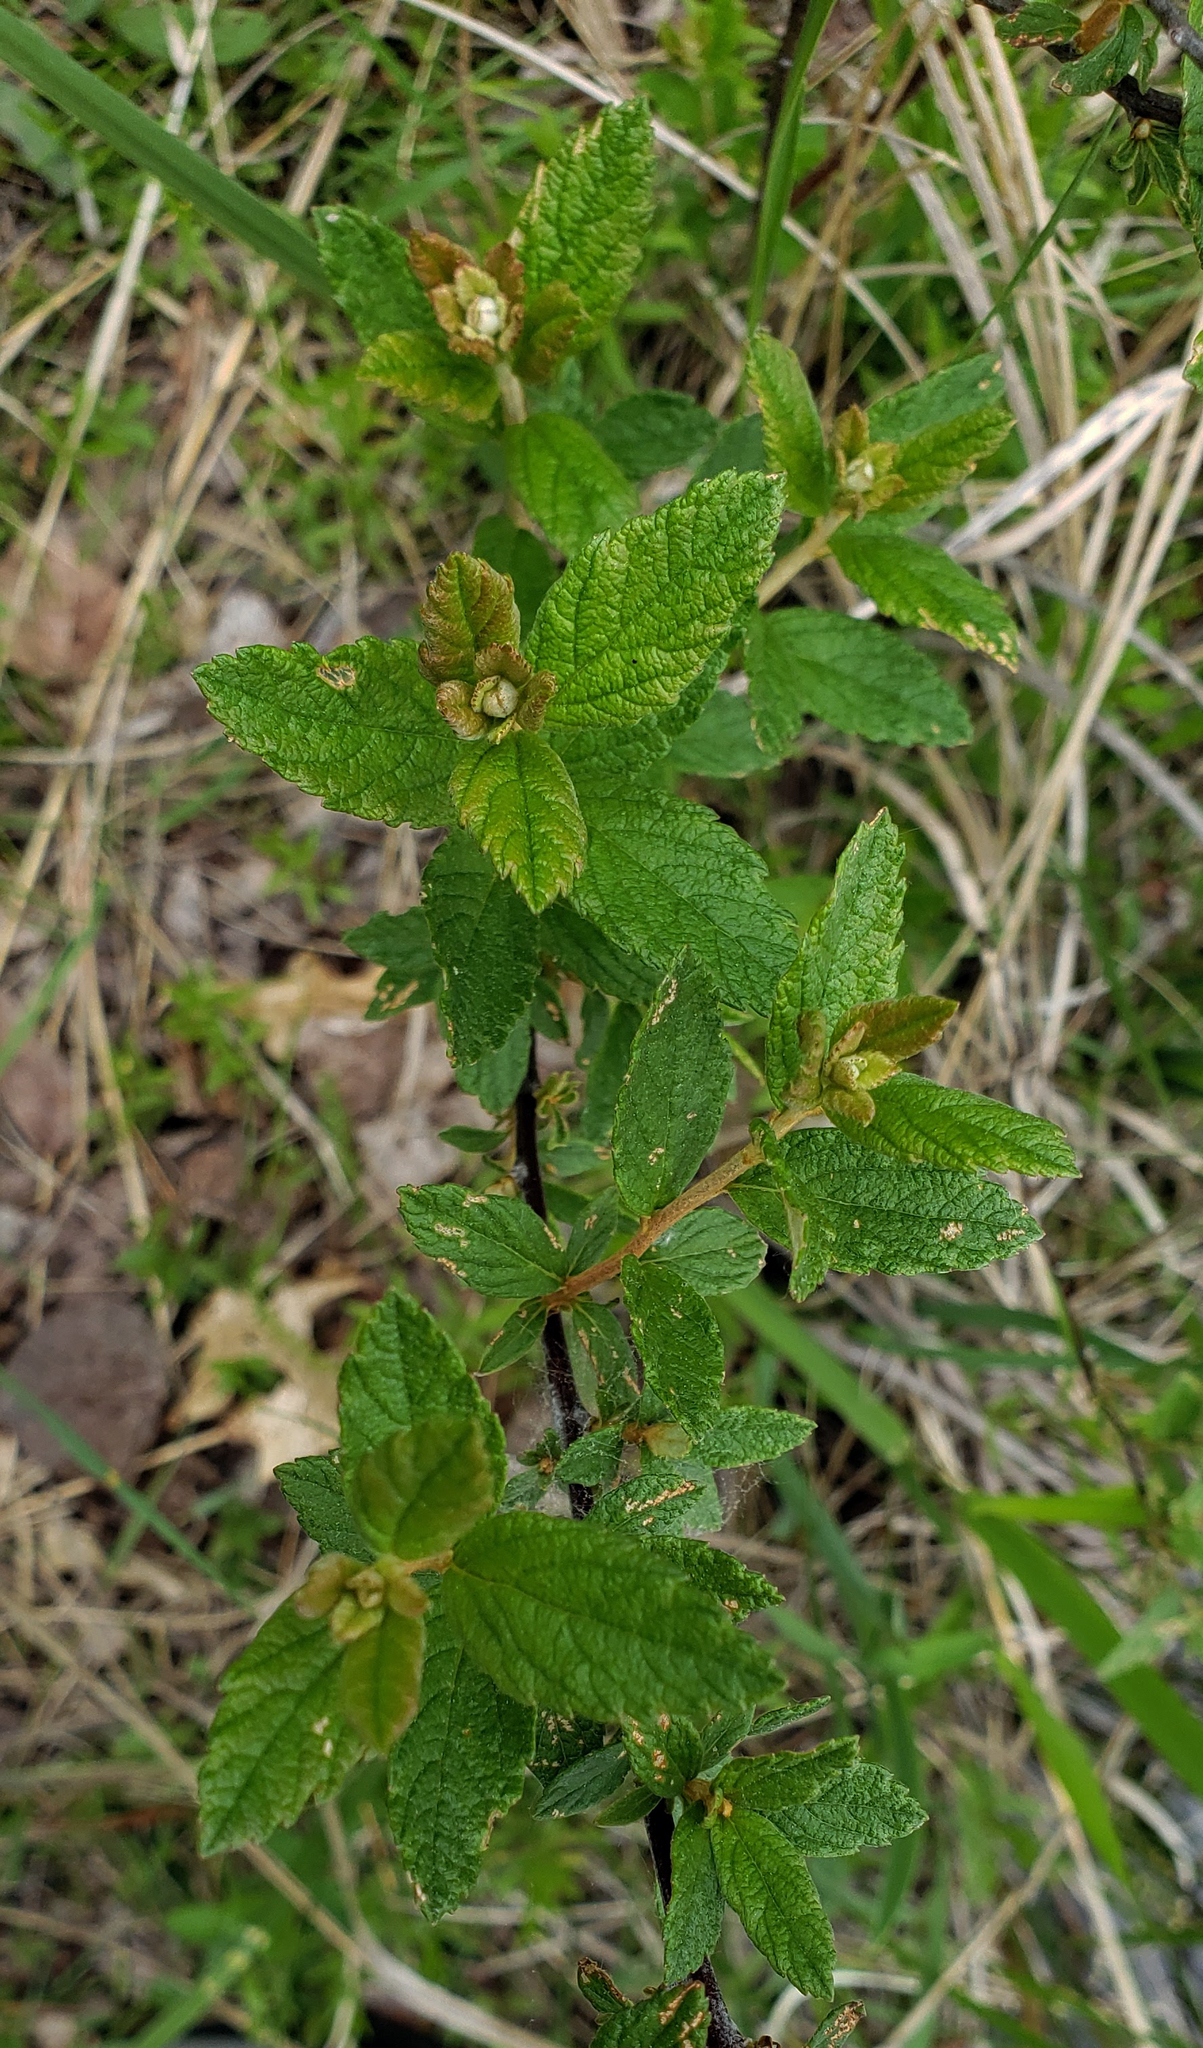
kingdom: Plantae
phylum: Tracheophyta
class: Magnoliopsida
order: Rosales
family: Rosaceae
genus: Spiraea
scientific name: Spiraea tomentosa
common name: Hardhack
